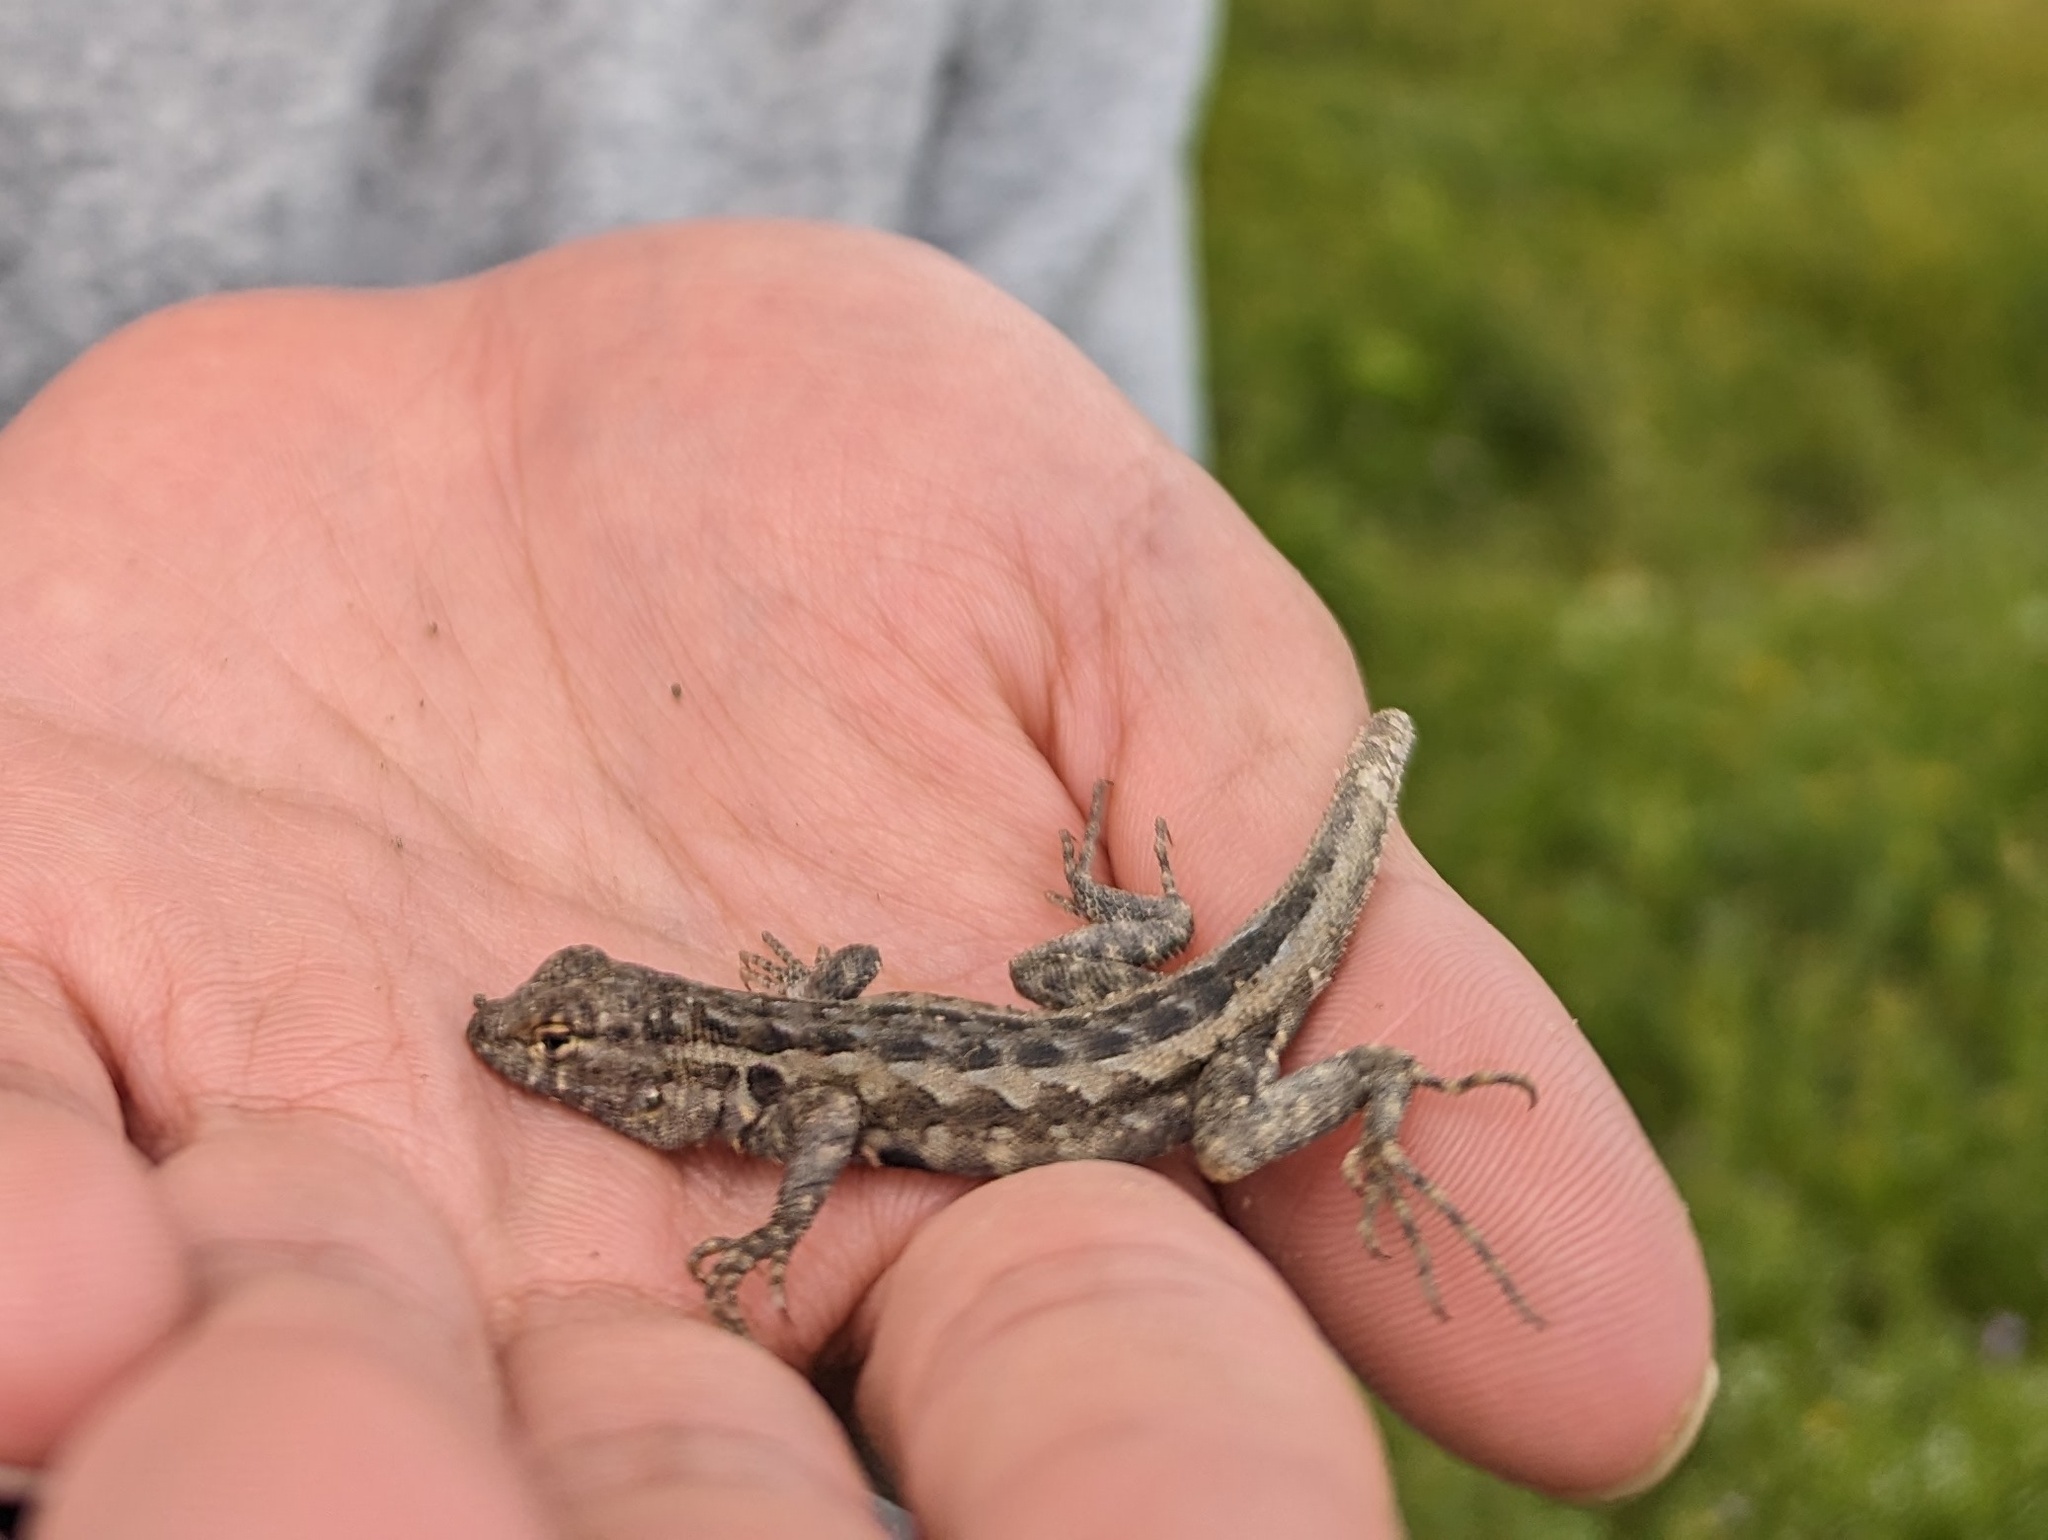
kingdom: Animalia
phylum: Chordata
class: Squamata
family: Phrynosomatidae
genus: Uta
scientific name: Uta stansburiana
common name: Side-blotched lizard
